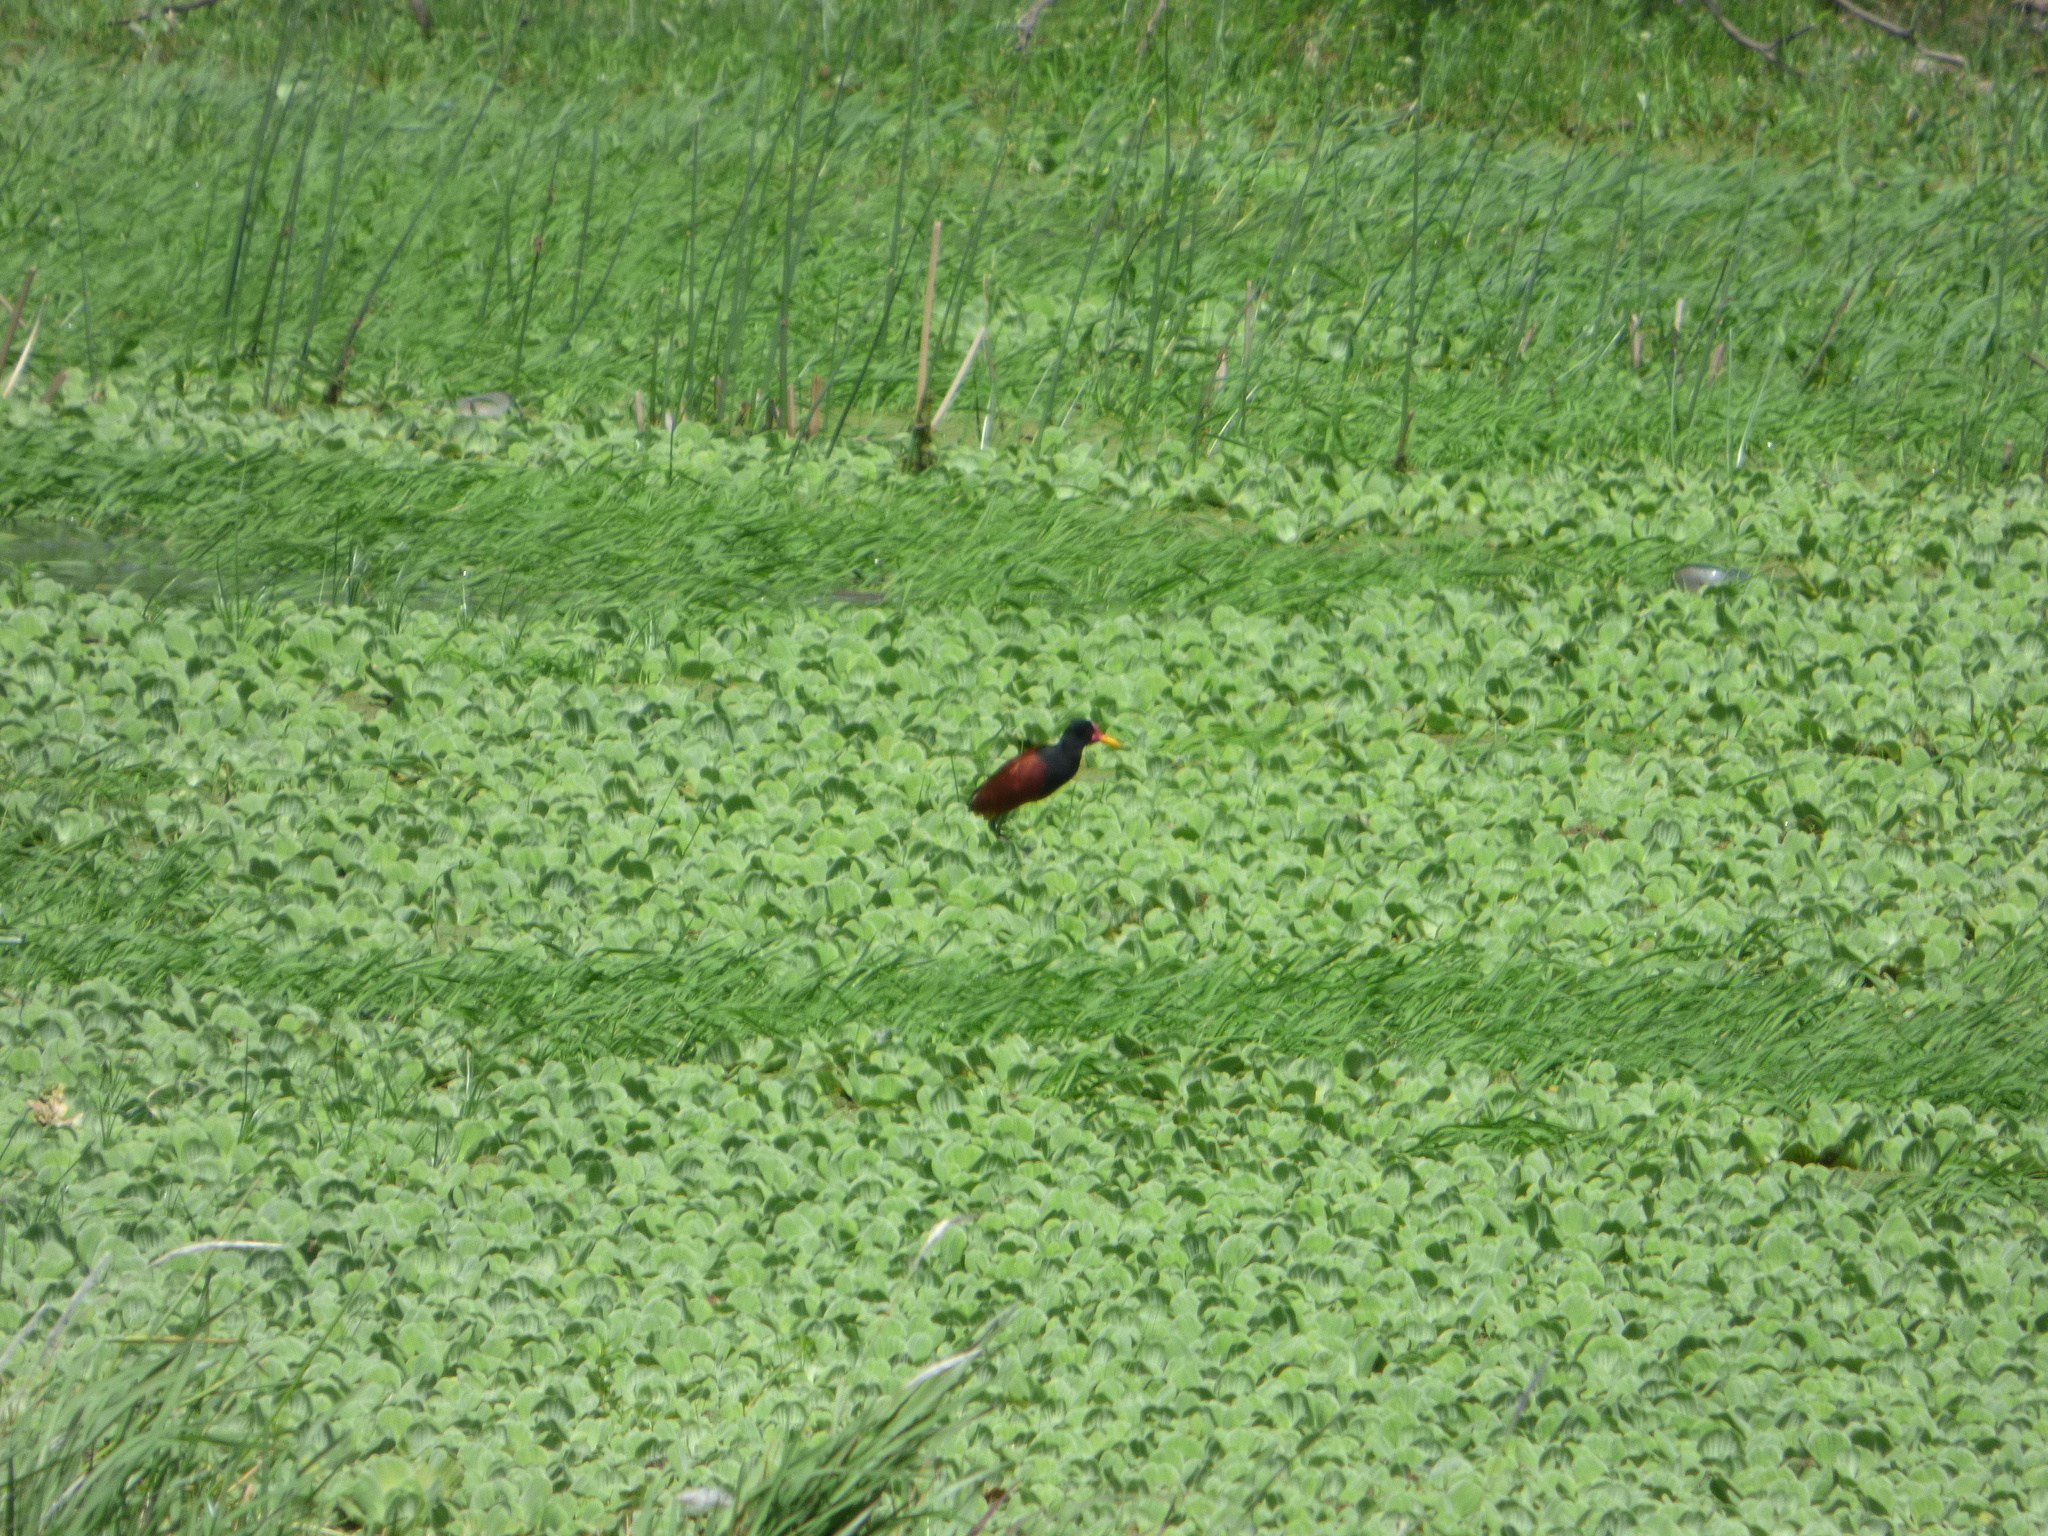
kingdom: Animalia
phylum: Chordata
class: Aves
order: Charadriiformes
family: Jacanidae
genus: Jacana
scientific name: Jacana jacana
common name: Wattled jacana
